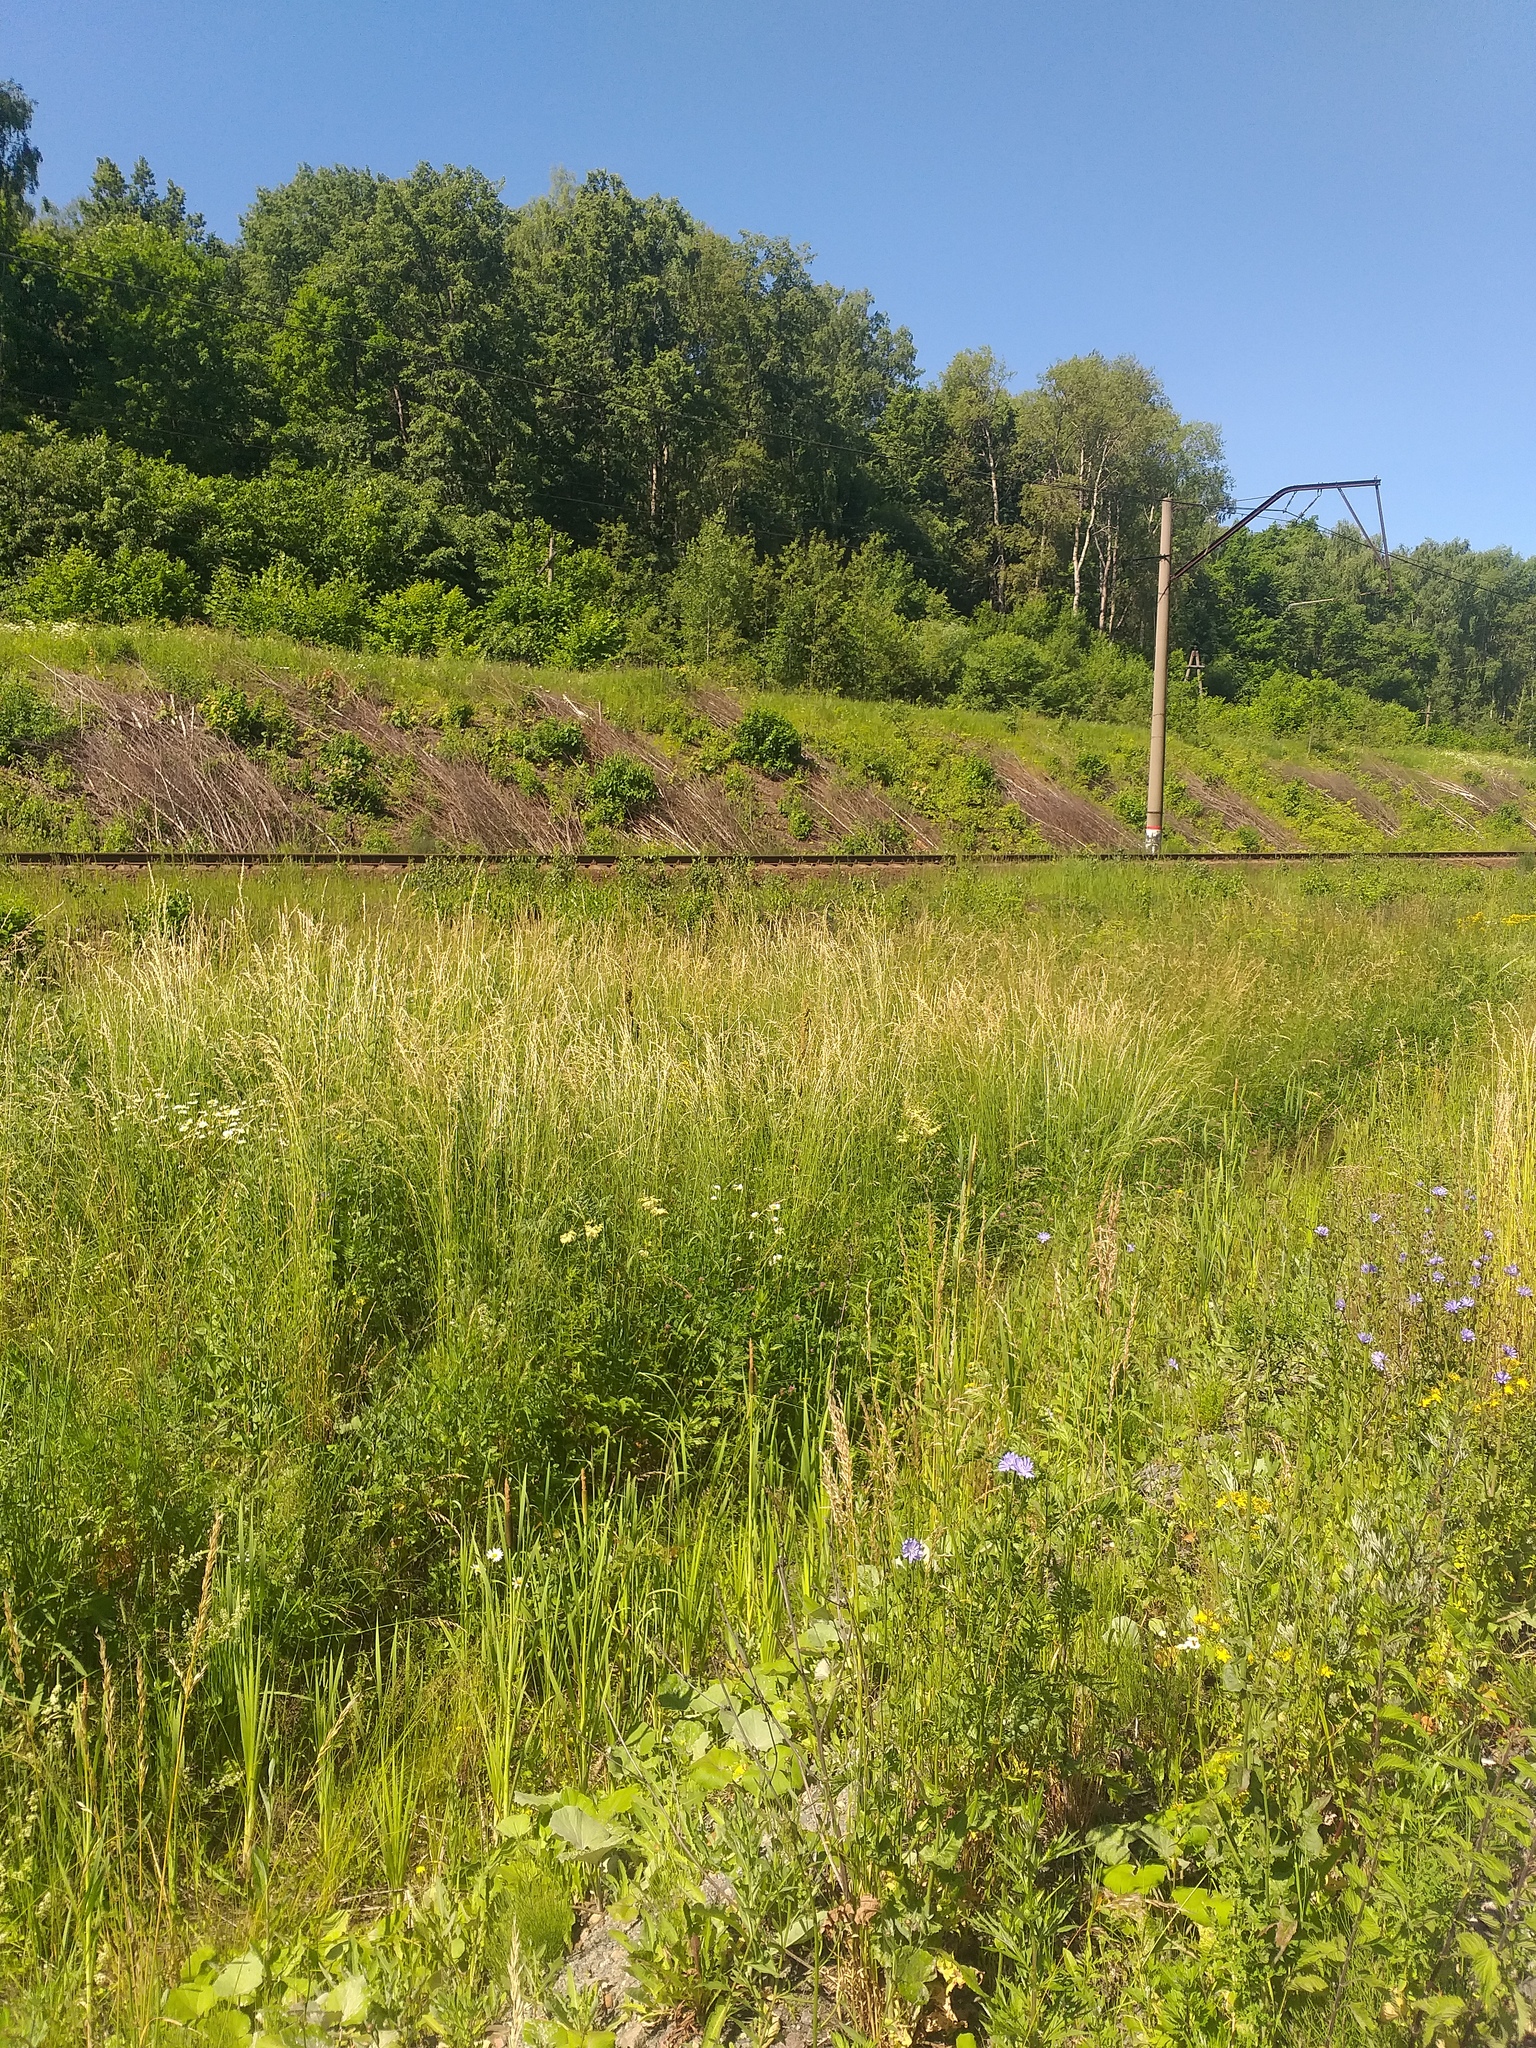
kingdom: Plantae
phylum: Tracheophyta
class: Liliopsida
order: Poales
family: Poaceae
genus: Arrhenatherum
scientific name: Arrhenatherum elatius
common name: Tall oatgrass
